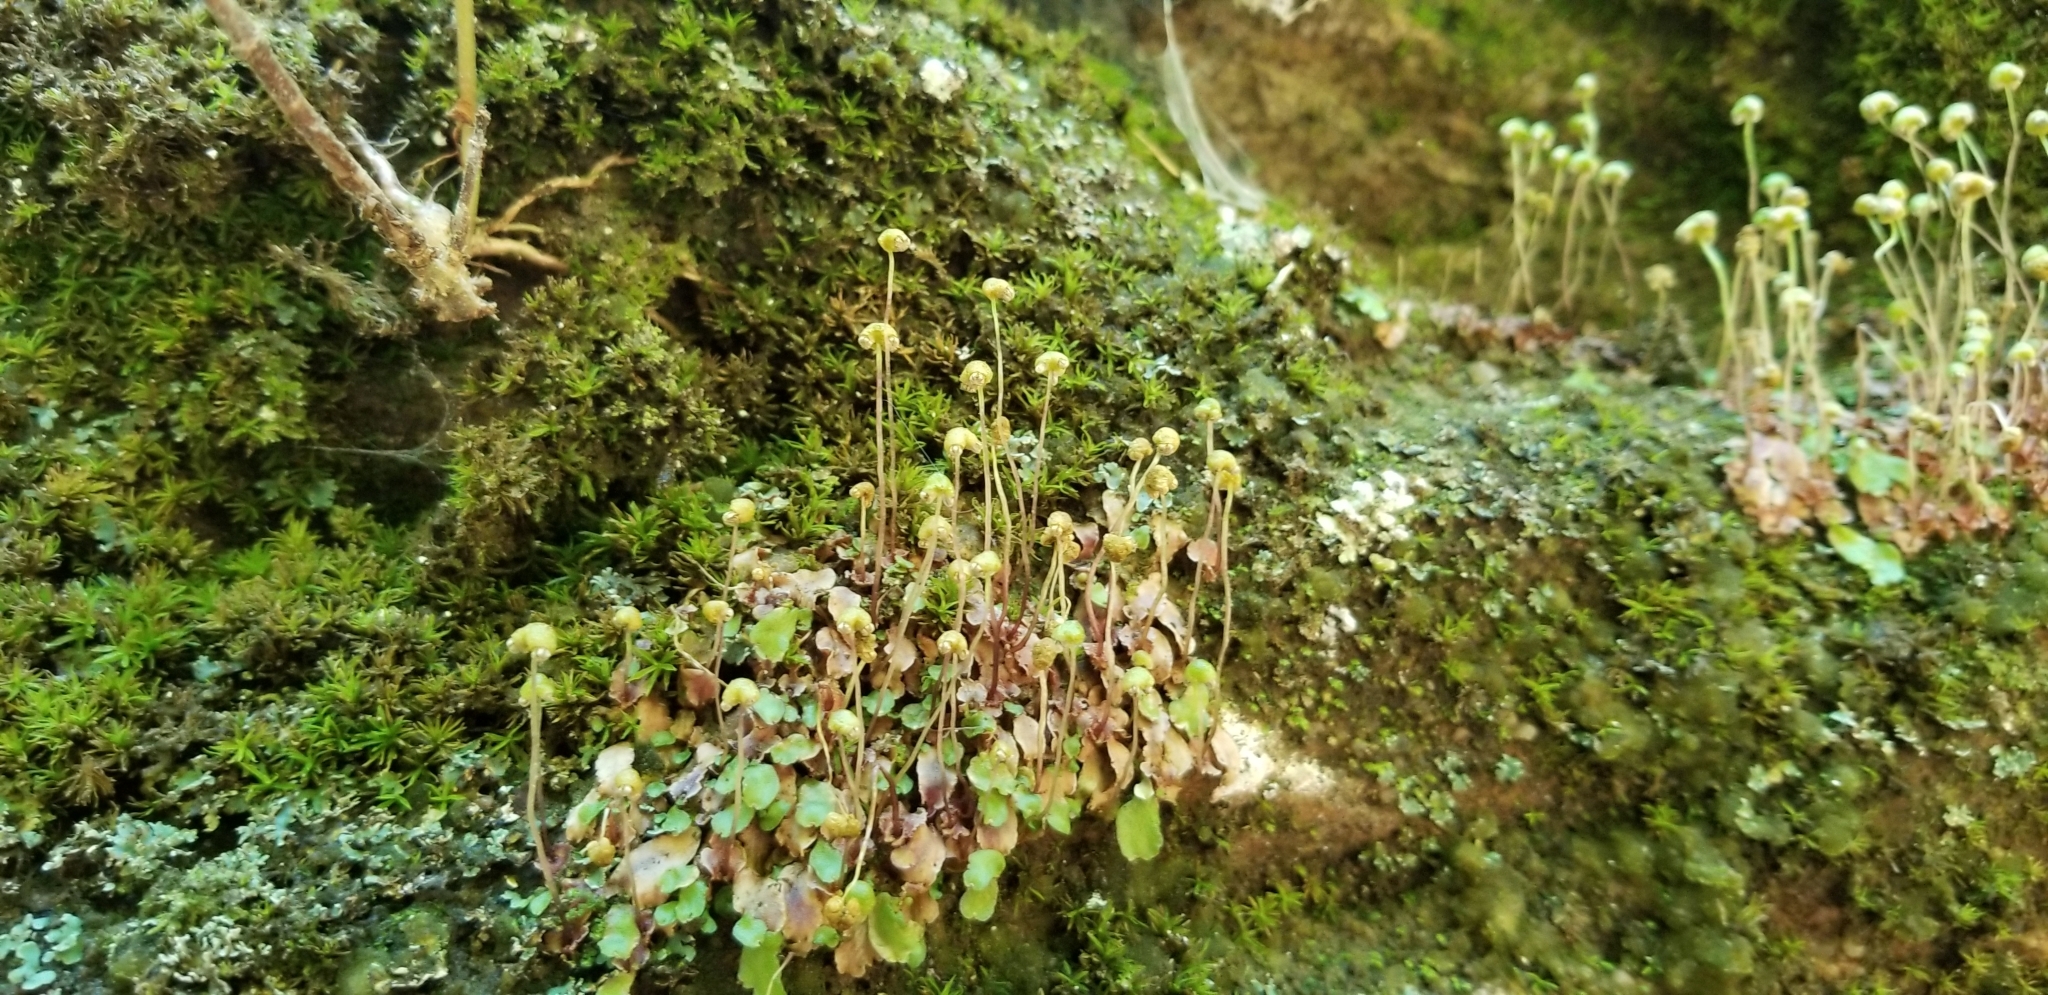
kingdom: Plantae
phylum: Marchantiophyta
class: Marchantiopsida
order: Marchantiales
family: Aytoniaceae
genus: Asterella
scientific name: Asterella tenella
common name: Delicate starwort
